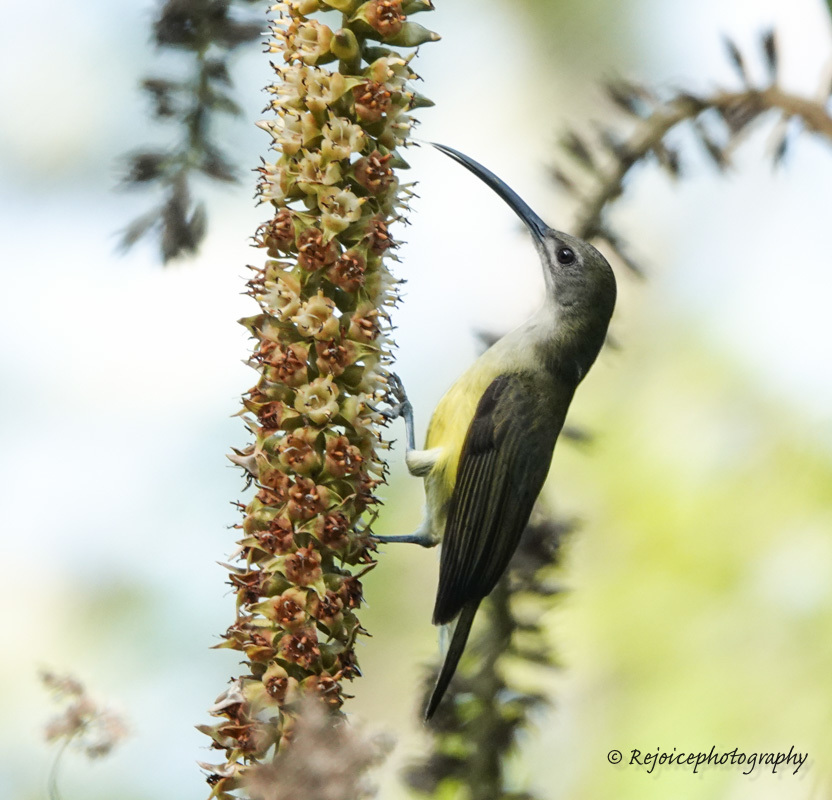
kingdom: Animalia
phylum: Chordata
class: Aves
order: Passeriformes
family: Nectariniidae
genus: Arachnothera
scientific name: Arachnothera longirostra
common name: Little spiderhunter
